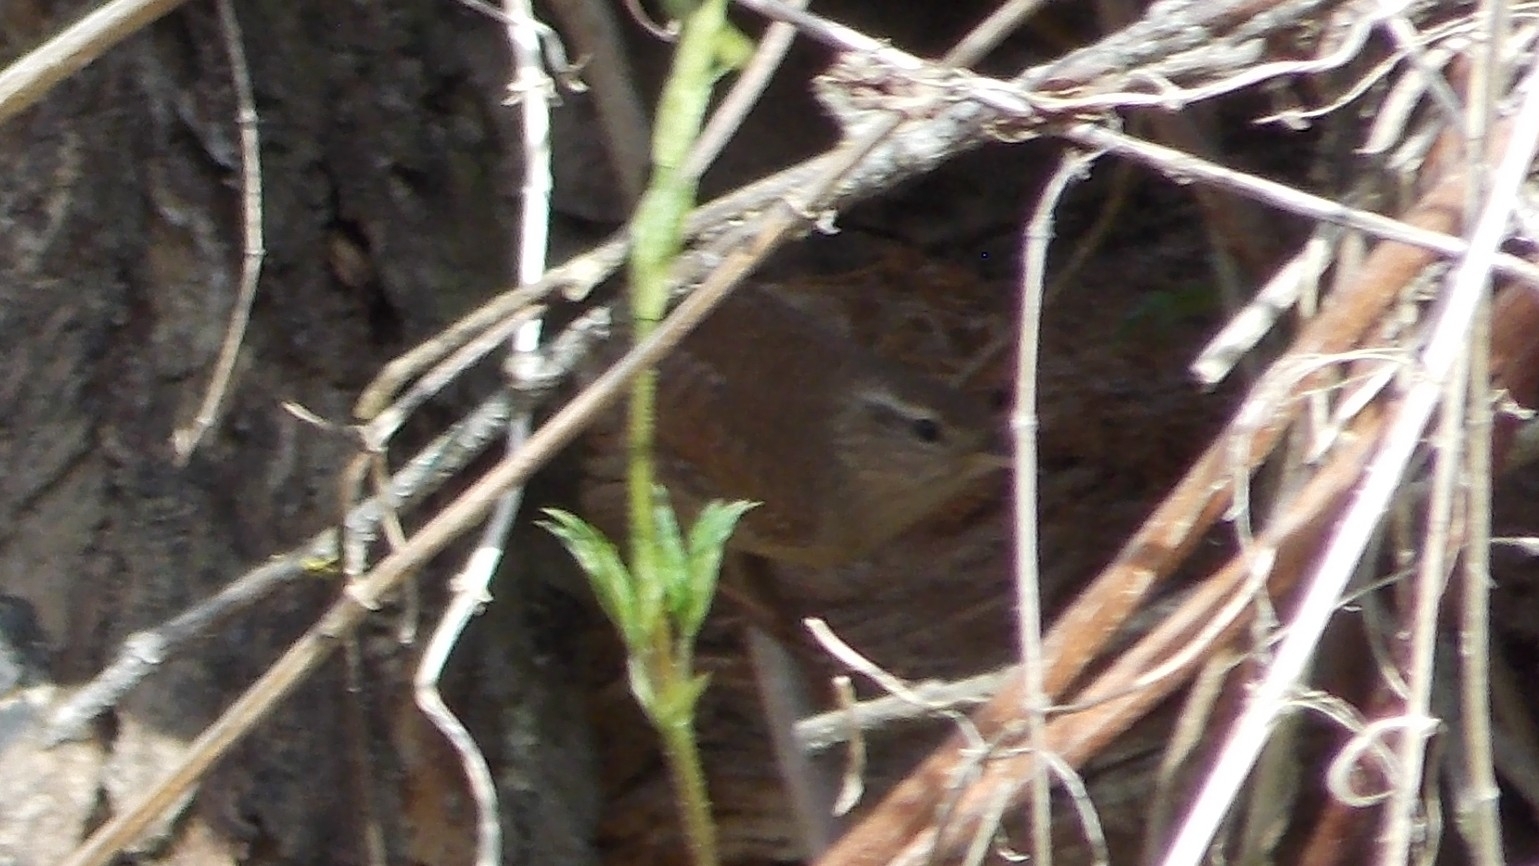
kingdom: Animalia
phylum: Chordata
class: Aves
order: Passeriformes
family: Troglodytidae
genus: Troglodytes
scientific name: Troglodytes troglodytes
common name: Eurasian wren
